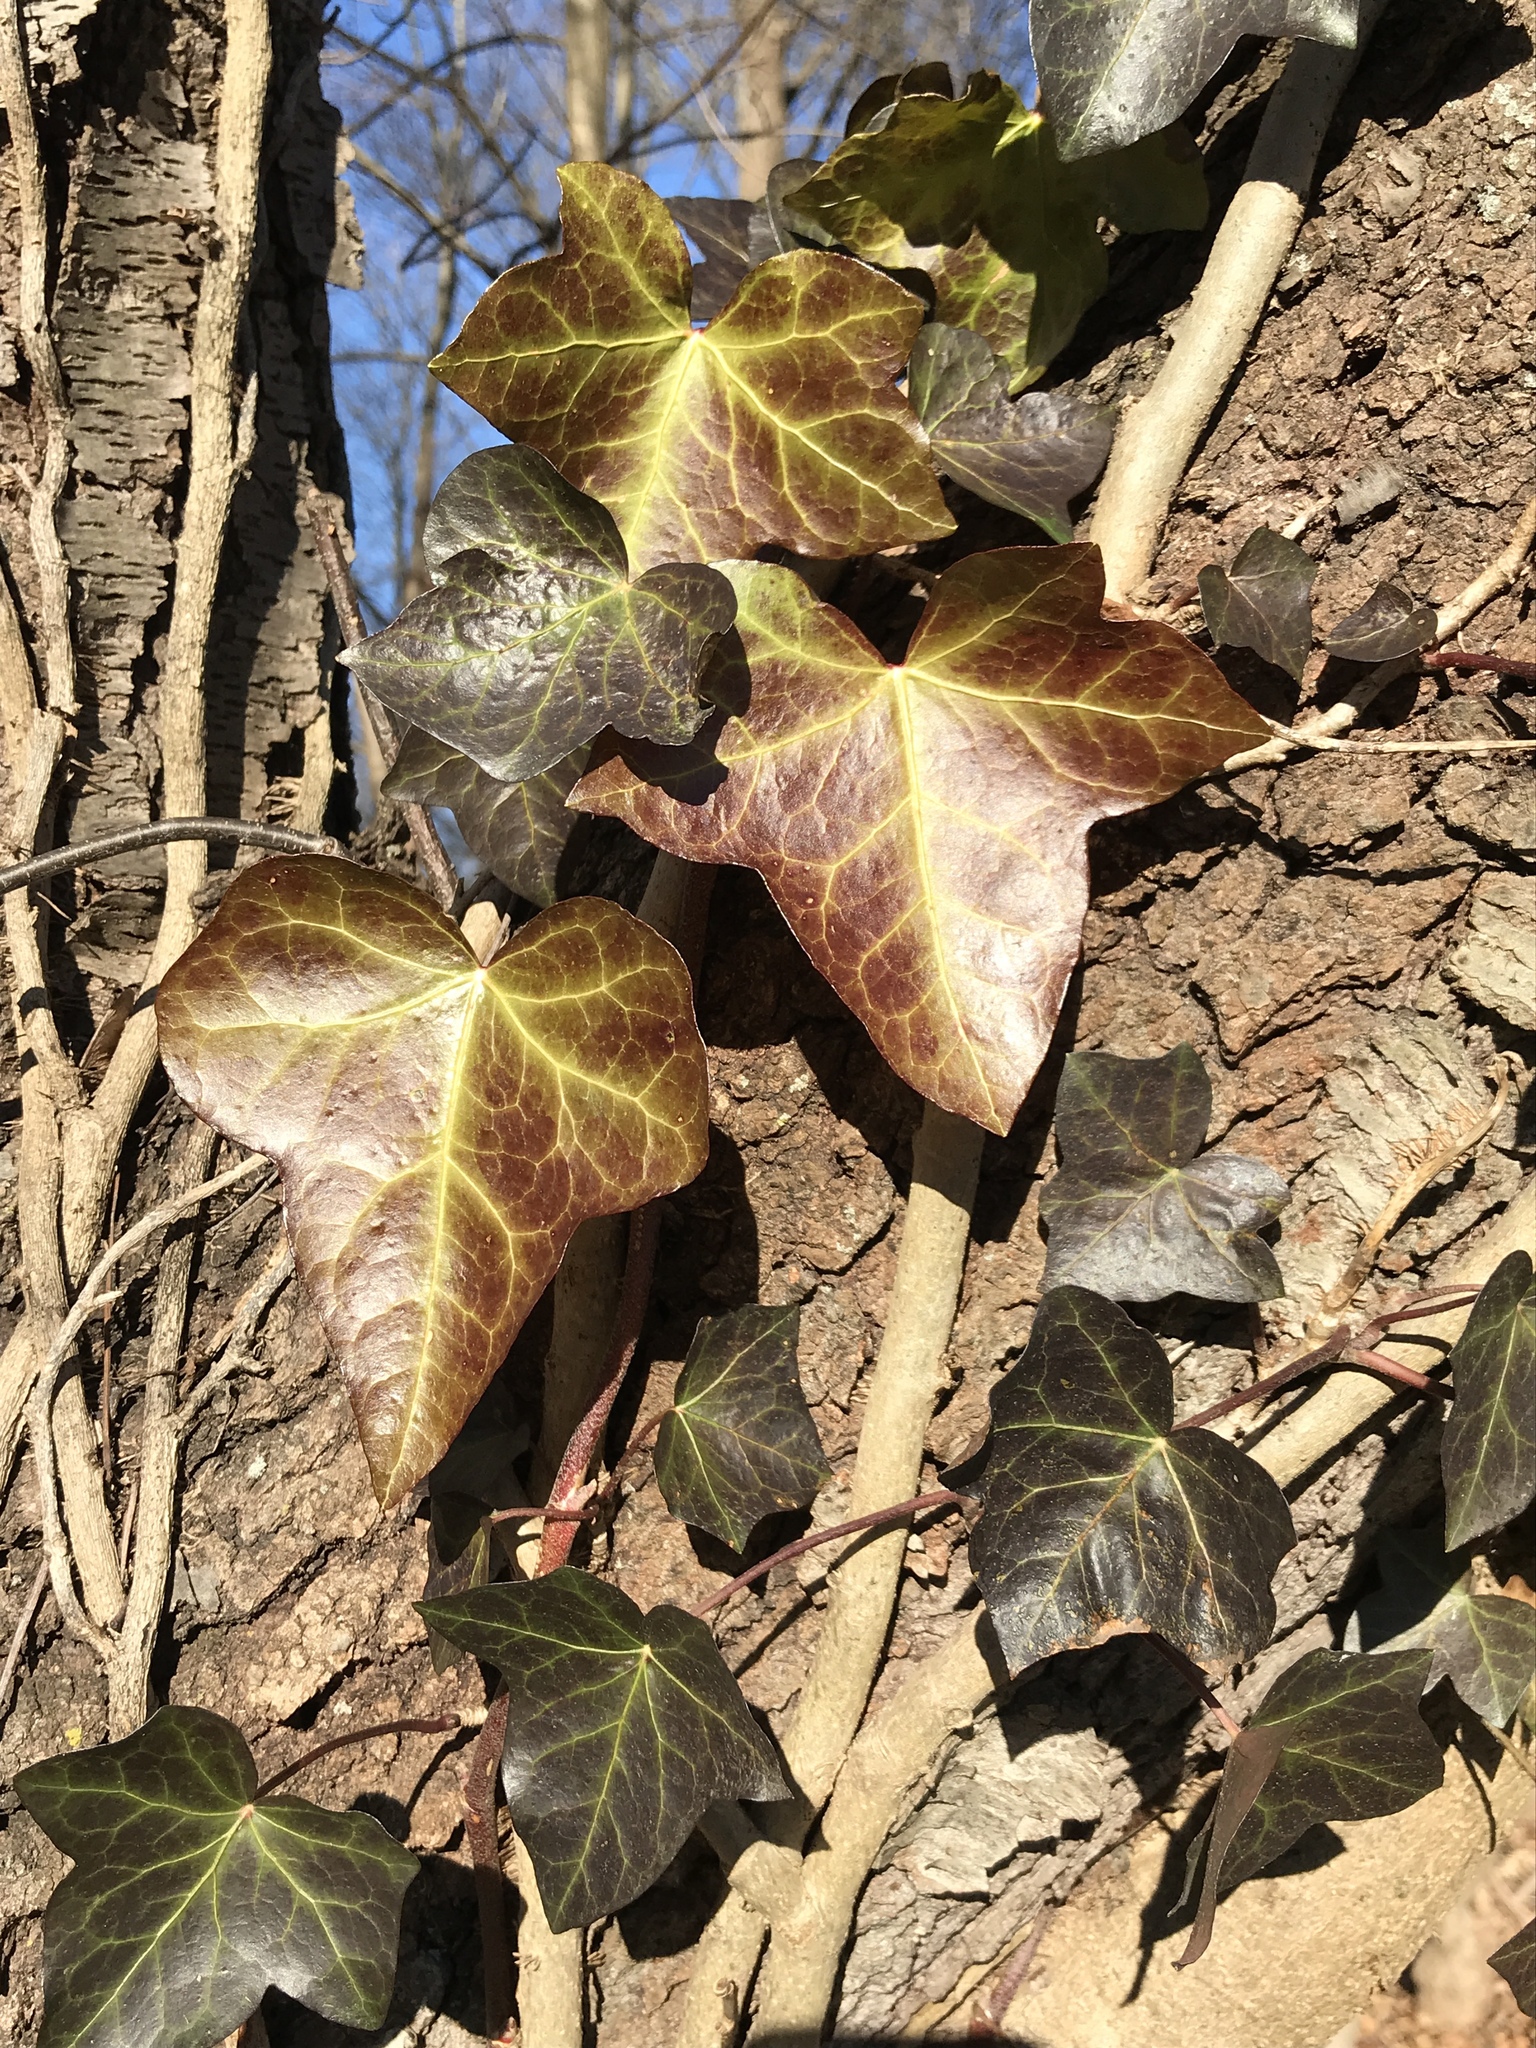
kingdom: Plantae
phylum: Tracheophyta
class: Magnoliopsida
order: Apiales
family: Araliaceae
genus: Hedera
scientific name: Hedera
